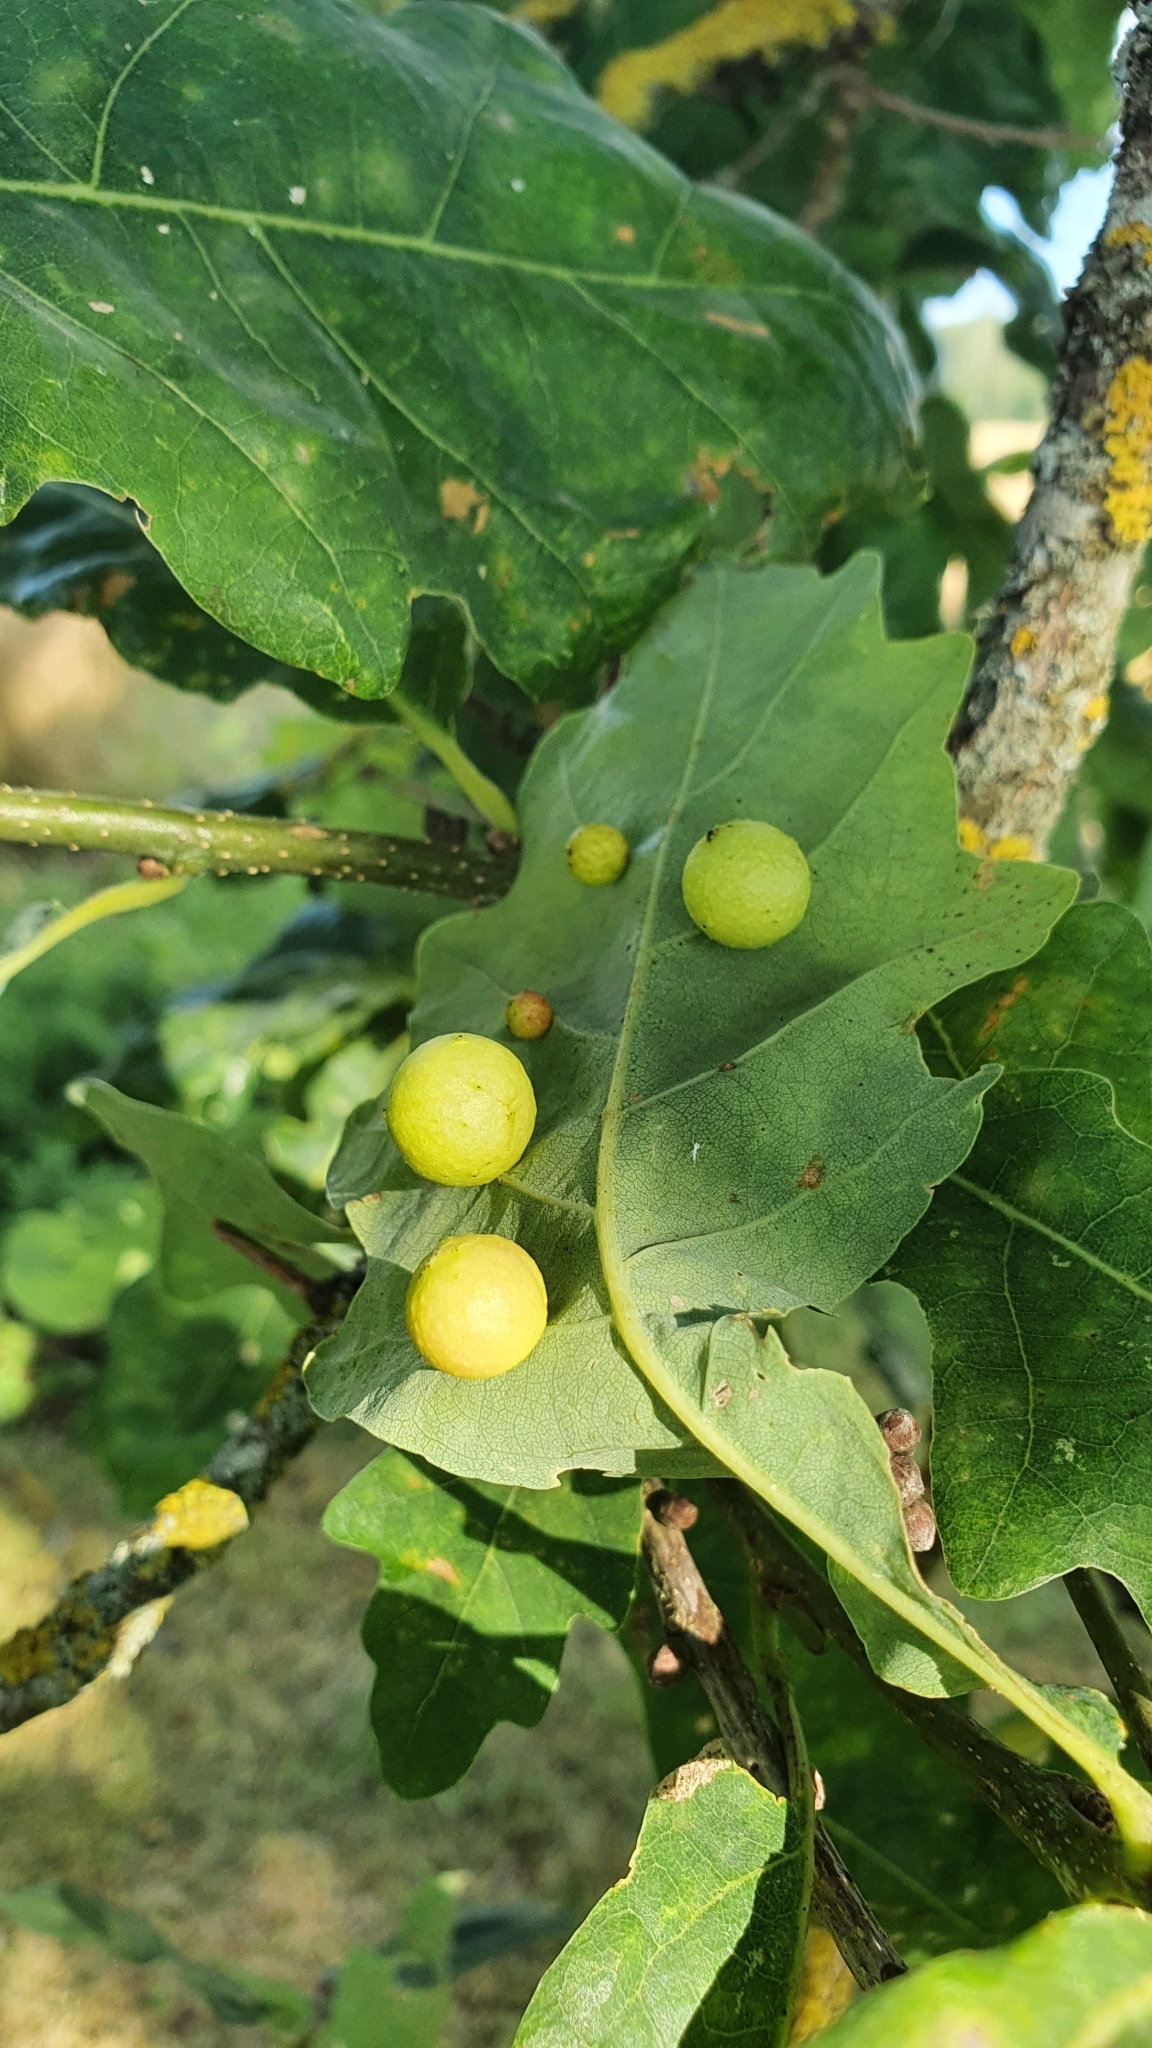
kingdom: Animalia
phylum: Arthropoda
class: Insecta
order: Hymenoptera
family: Cynipidae
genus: Cynips
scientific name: Cynips quercusfolii
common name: Cherry gall
